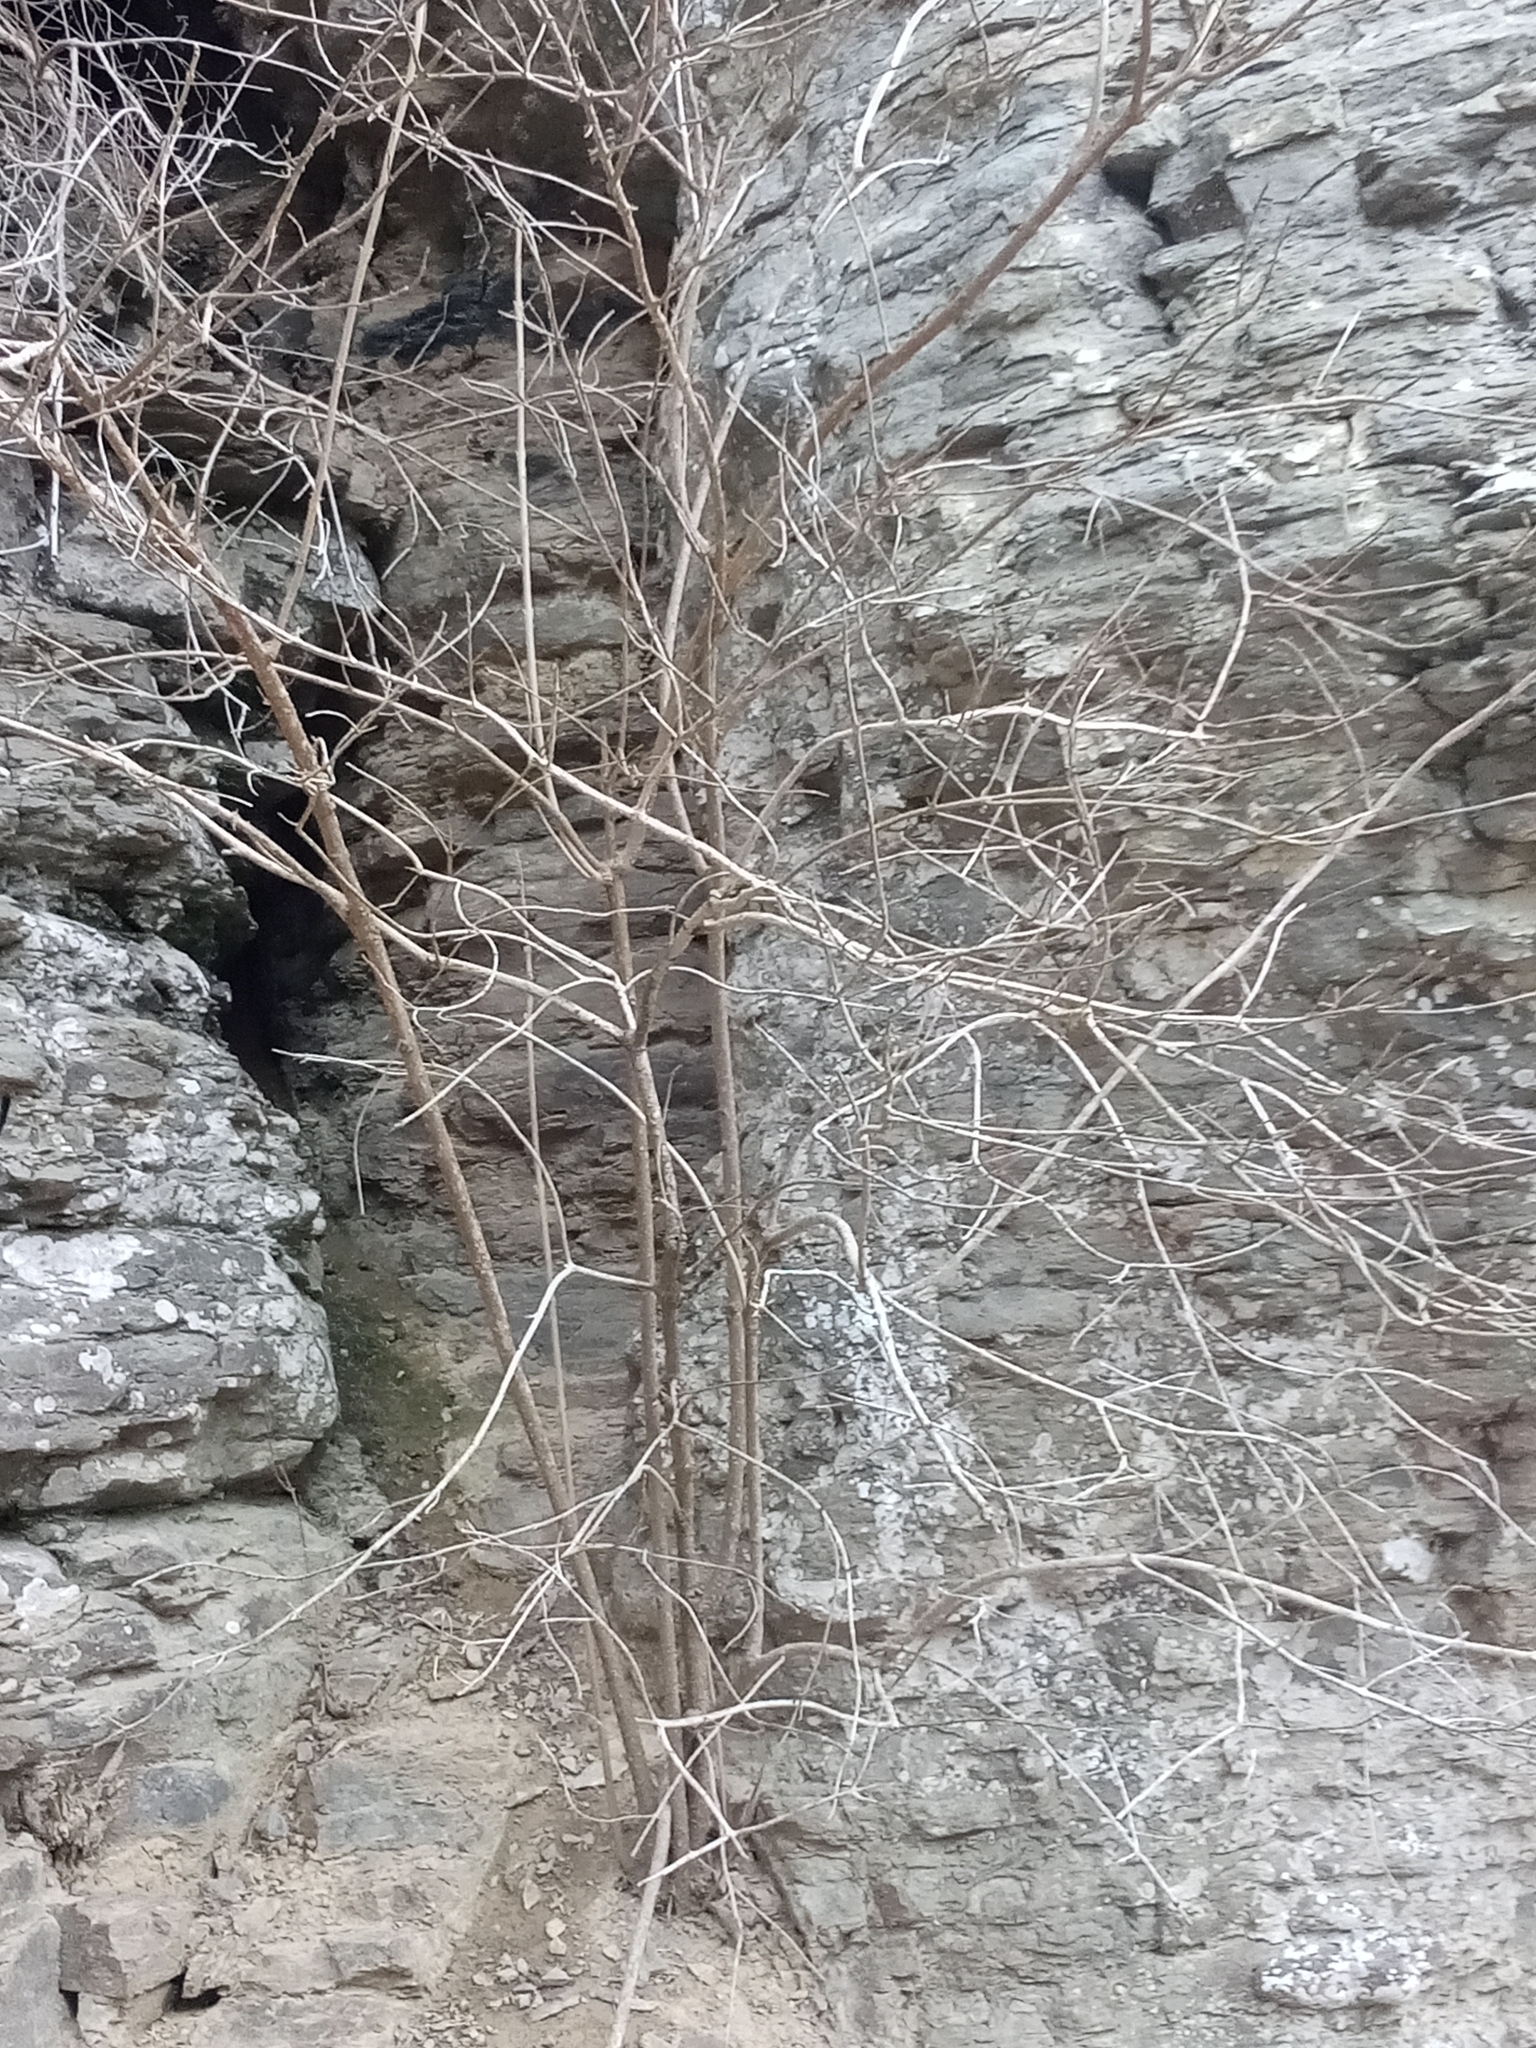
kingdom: Plantae
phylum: Tracheophyta
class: Magnoliopsida
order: Lamiales
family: Lamiaceae
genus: Callicarpa
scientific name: Callicarpa americana
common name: American beautyberry
